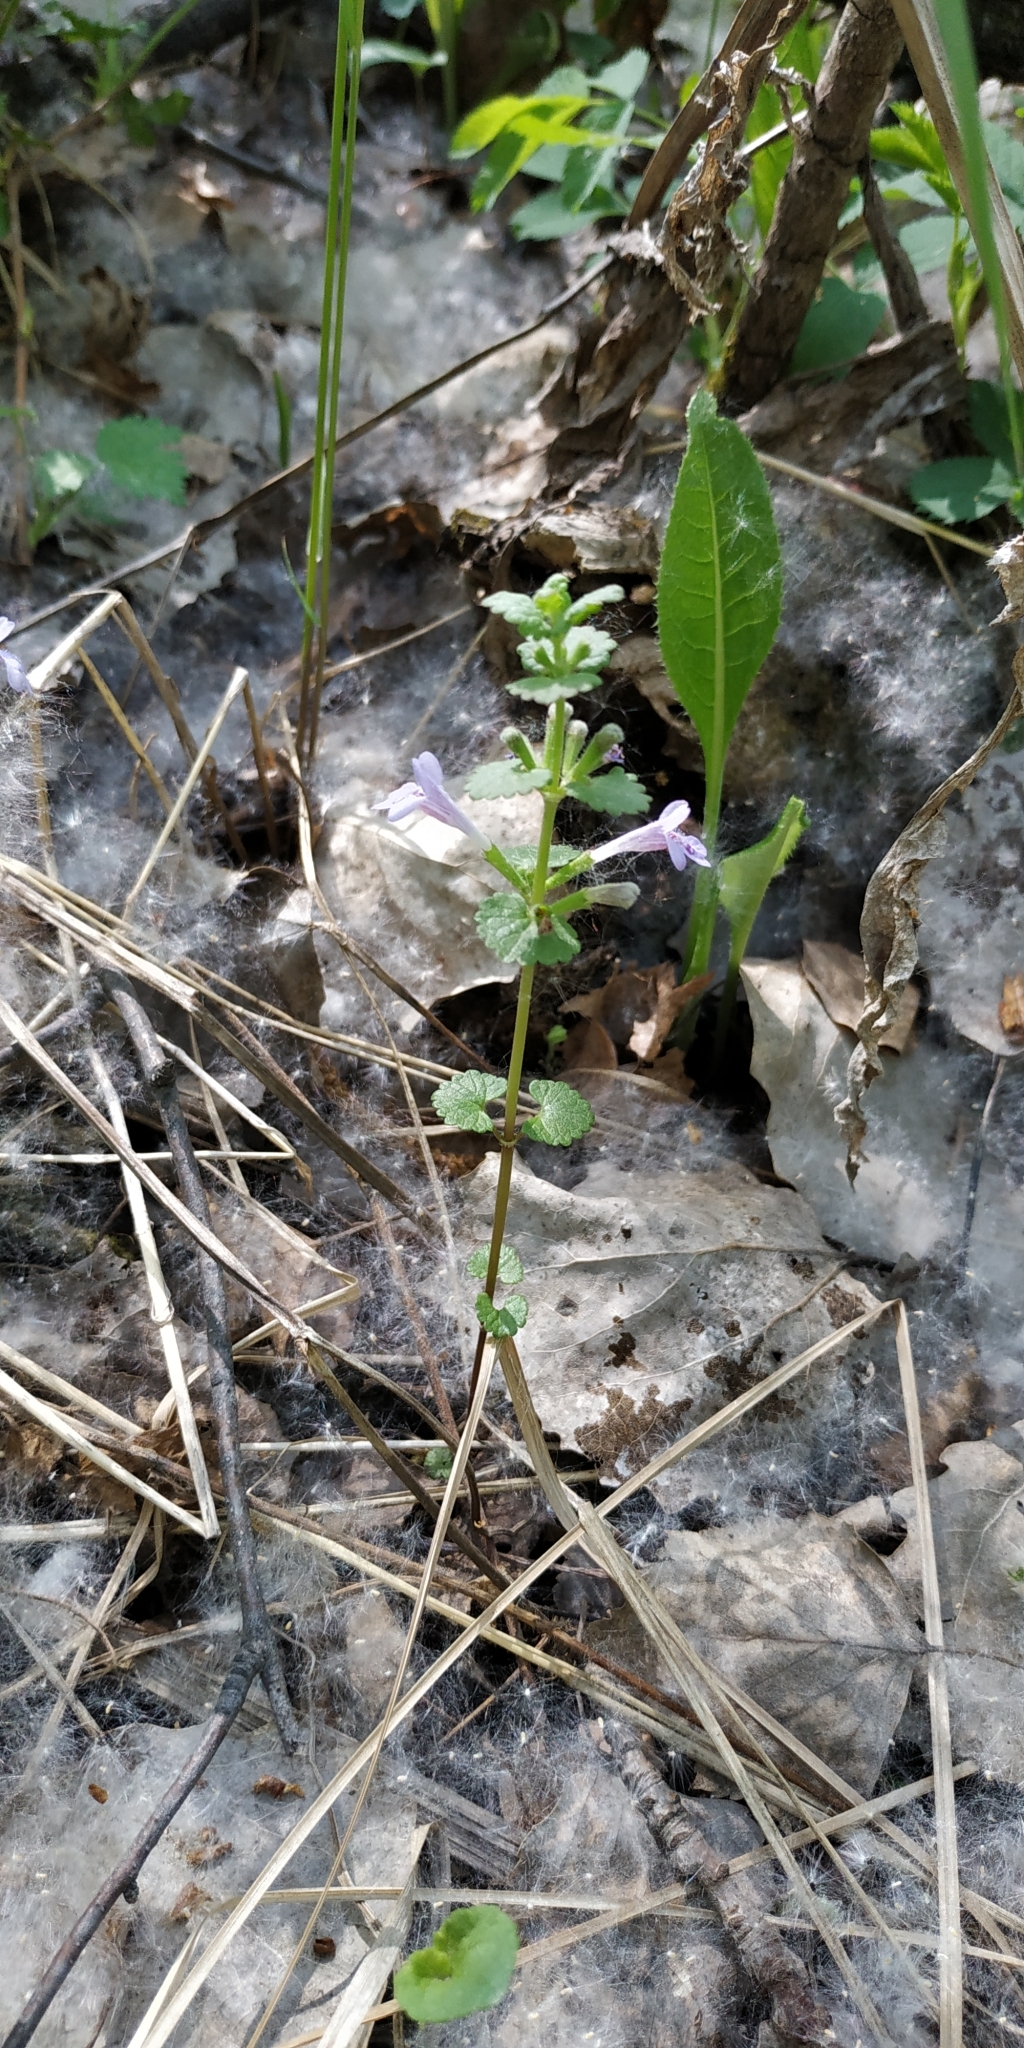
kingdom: Plantae
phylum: Tracheophyta
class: Magnoliopsida
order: Lamiales
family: Lamiaceae
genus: Glechoma
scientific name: Glechoma hederacea
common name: Ground ivy
